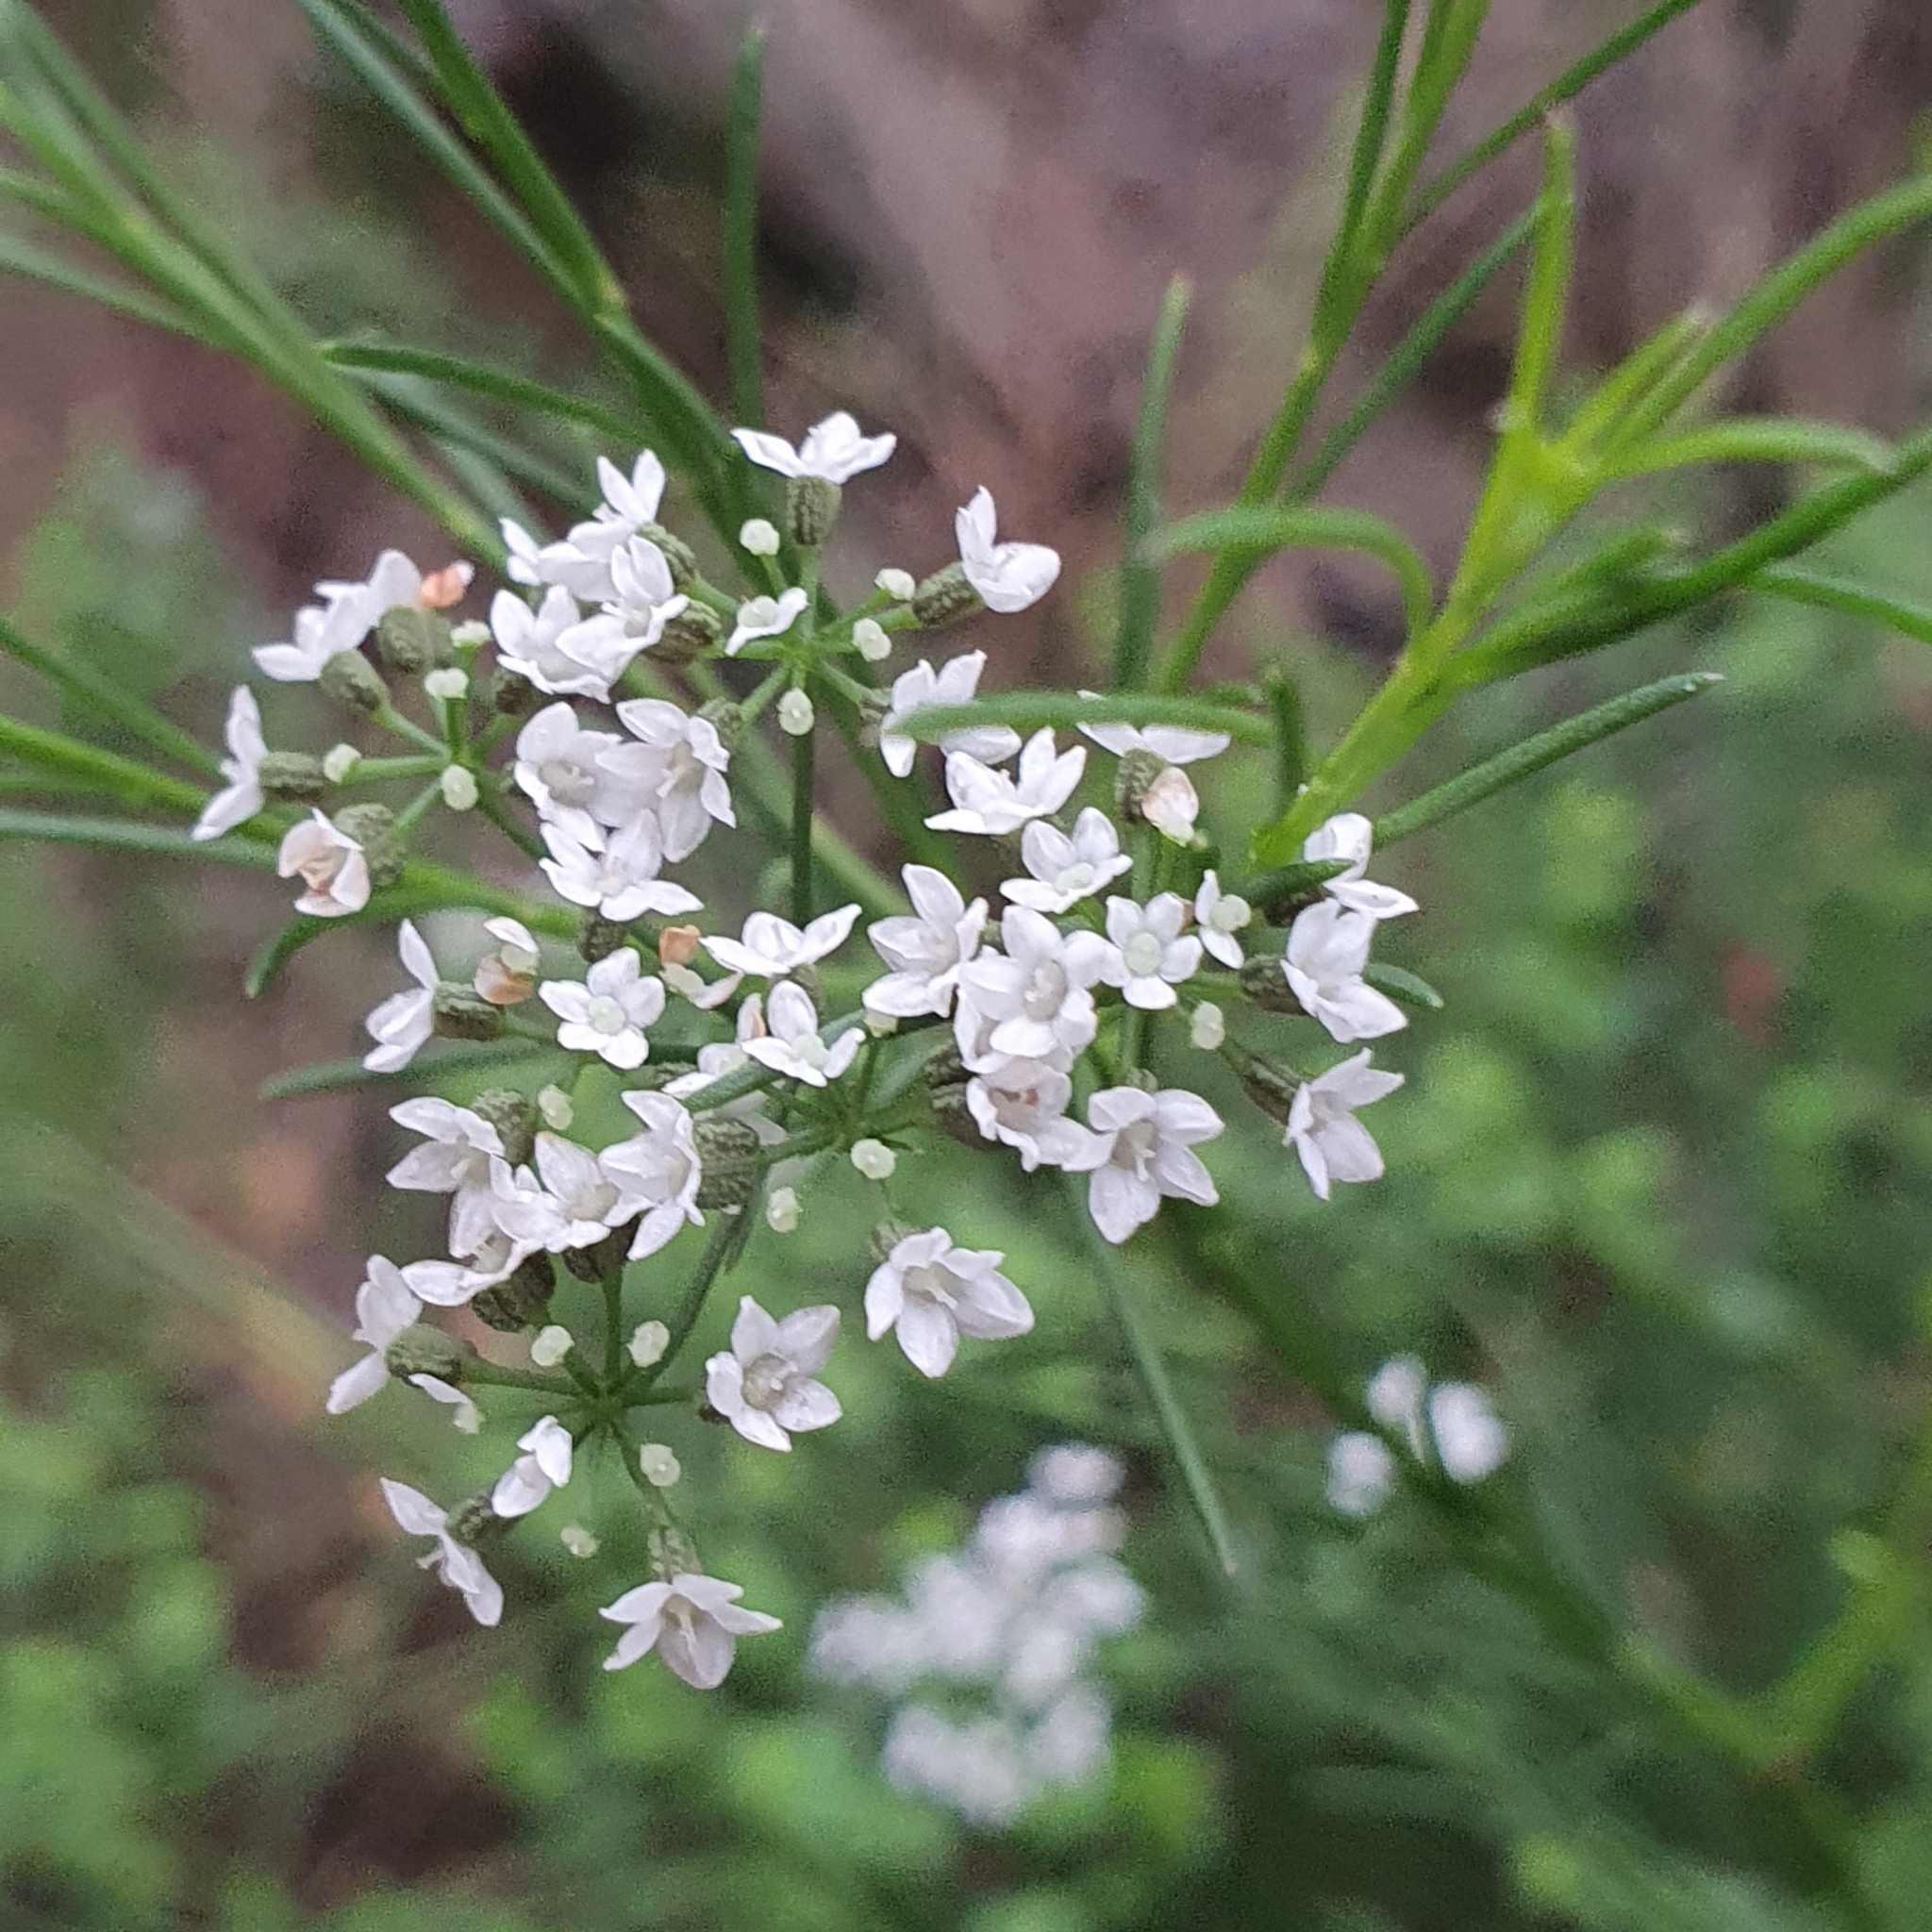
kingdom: Plantae
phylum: Tracheophyta
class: Magnoliopsida
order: Apiales
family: Apiaceae
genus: Platysace
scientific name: Platysace linearifolia
